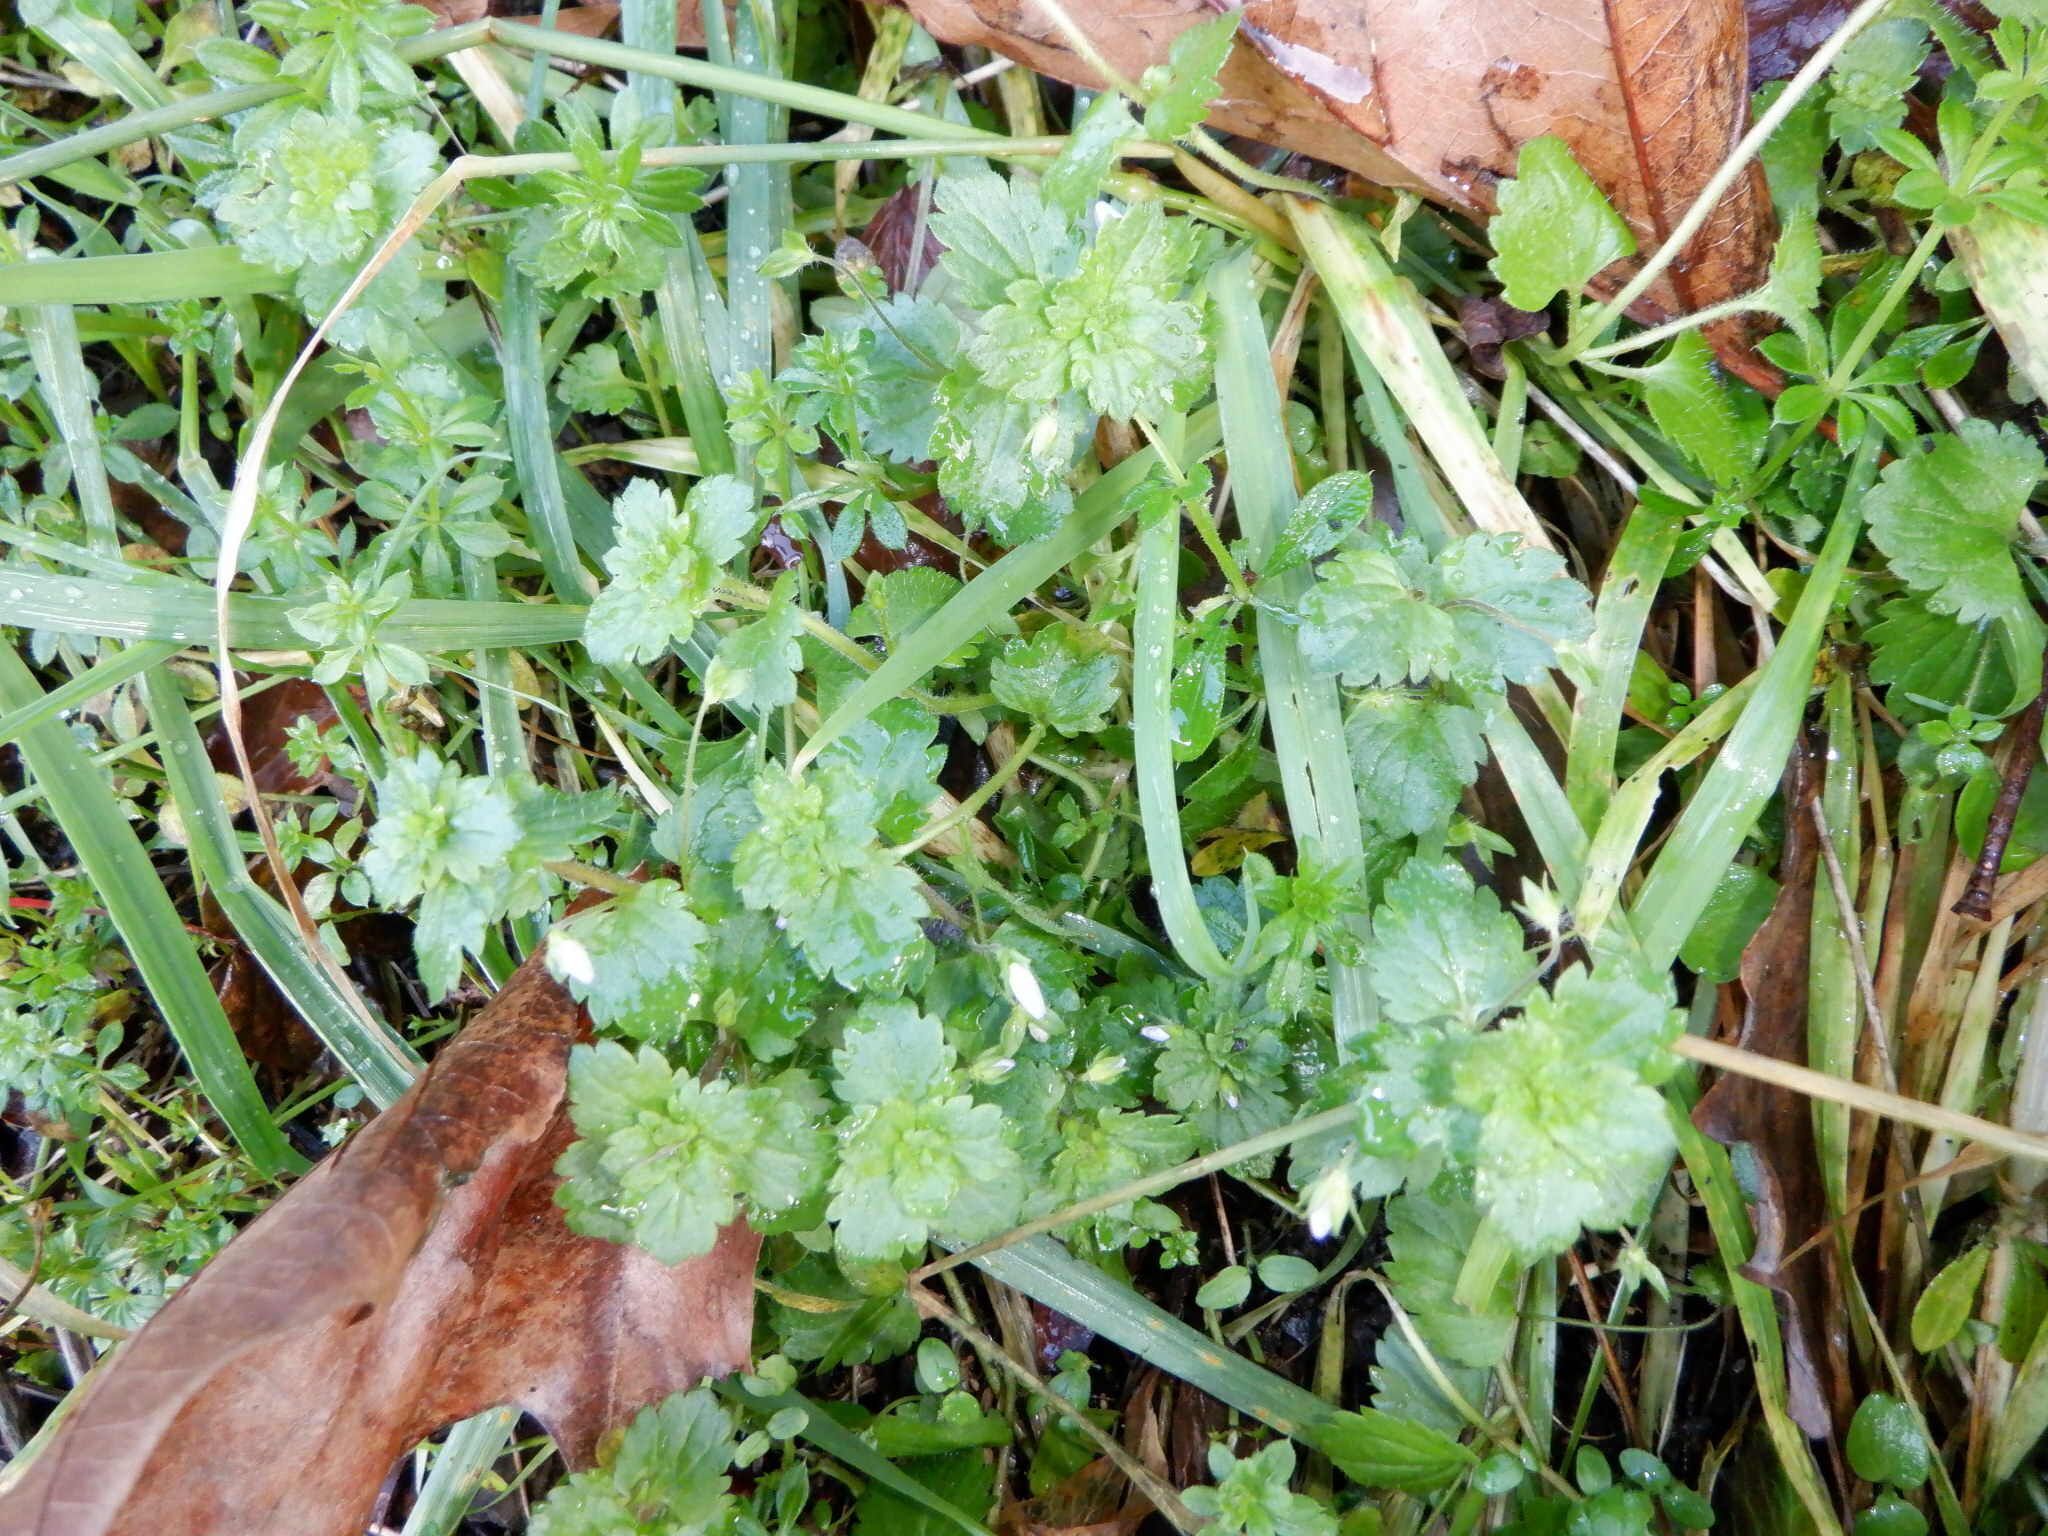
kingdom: Plantae
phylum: Tracheophyta
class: Magnoliopsida
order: Lamiales
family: Plantaginaceae
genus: Veronica
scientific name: Veronica persica
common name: Common field-speedwell
